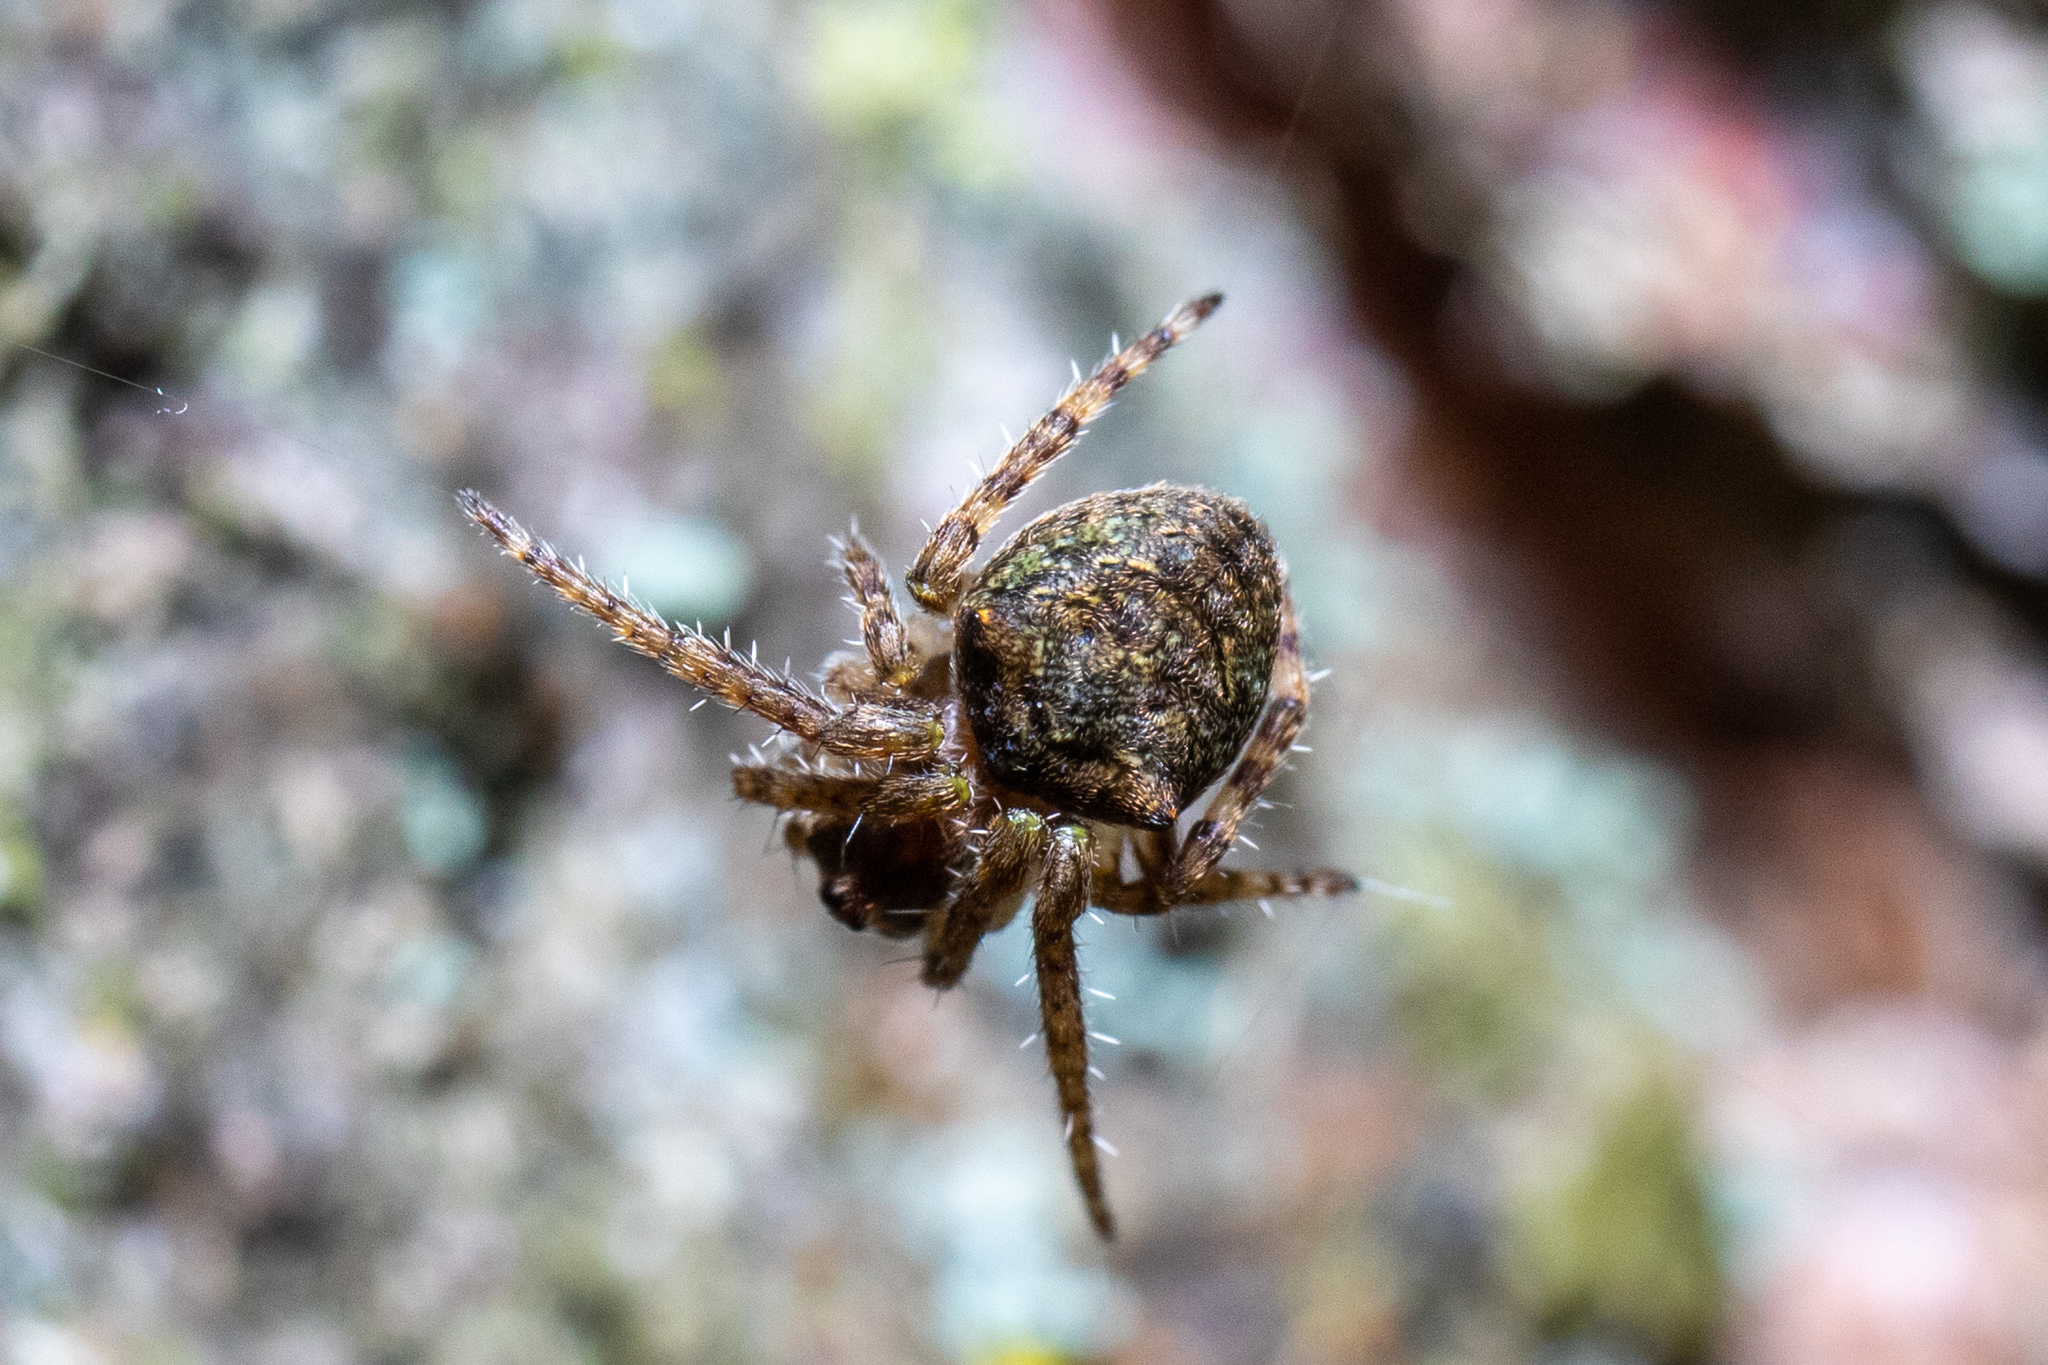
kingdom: Animalia
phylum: Arthropoda
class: Arachnida
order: Araneae
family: Araneidae
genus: Gibbaranea
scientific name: Gibbaranea gibbosa
